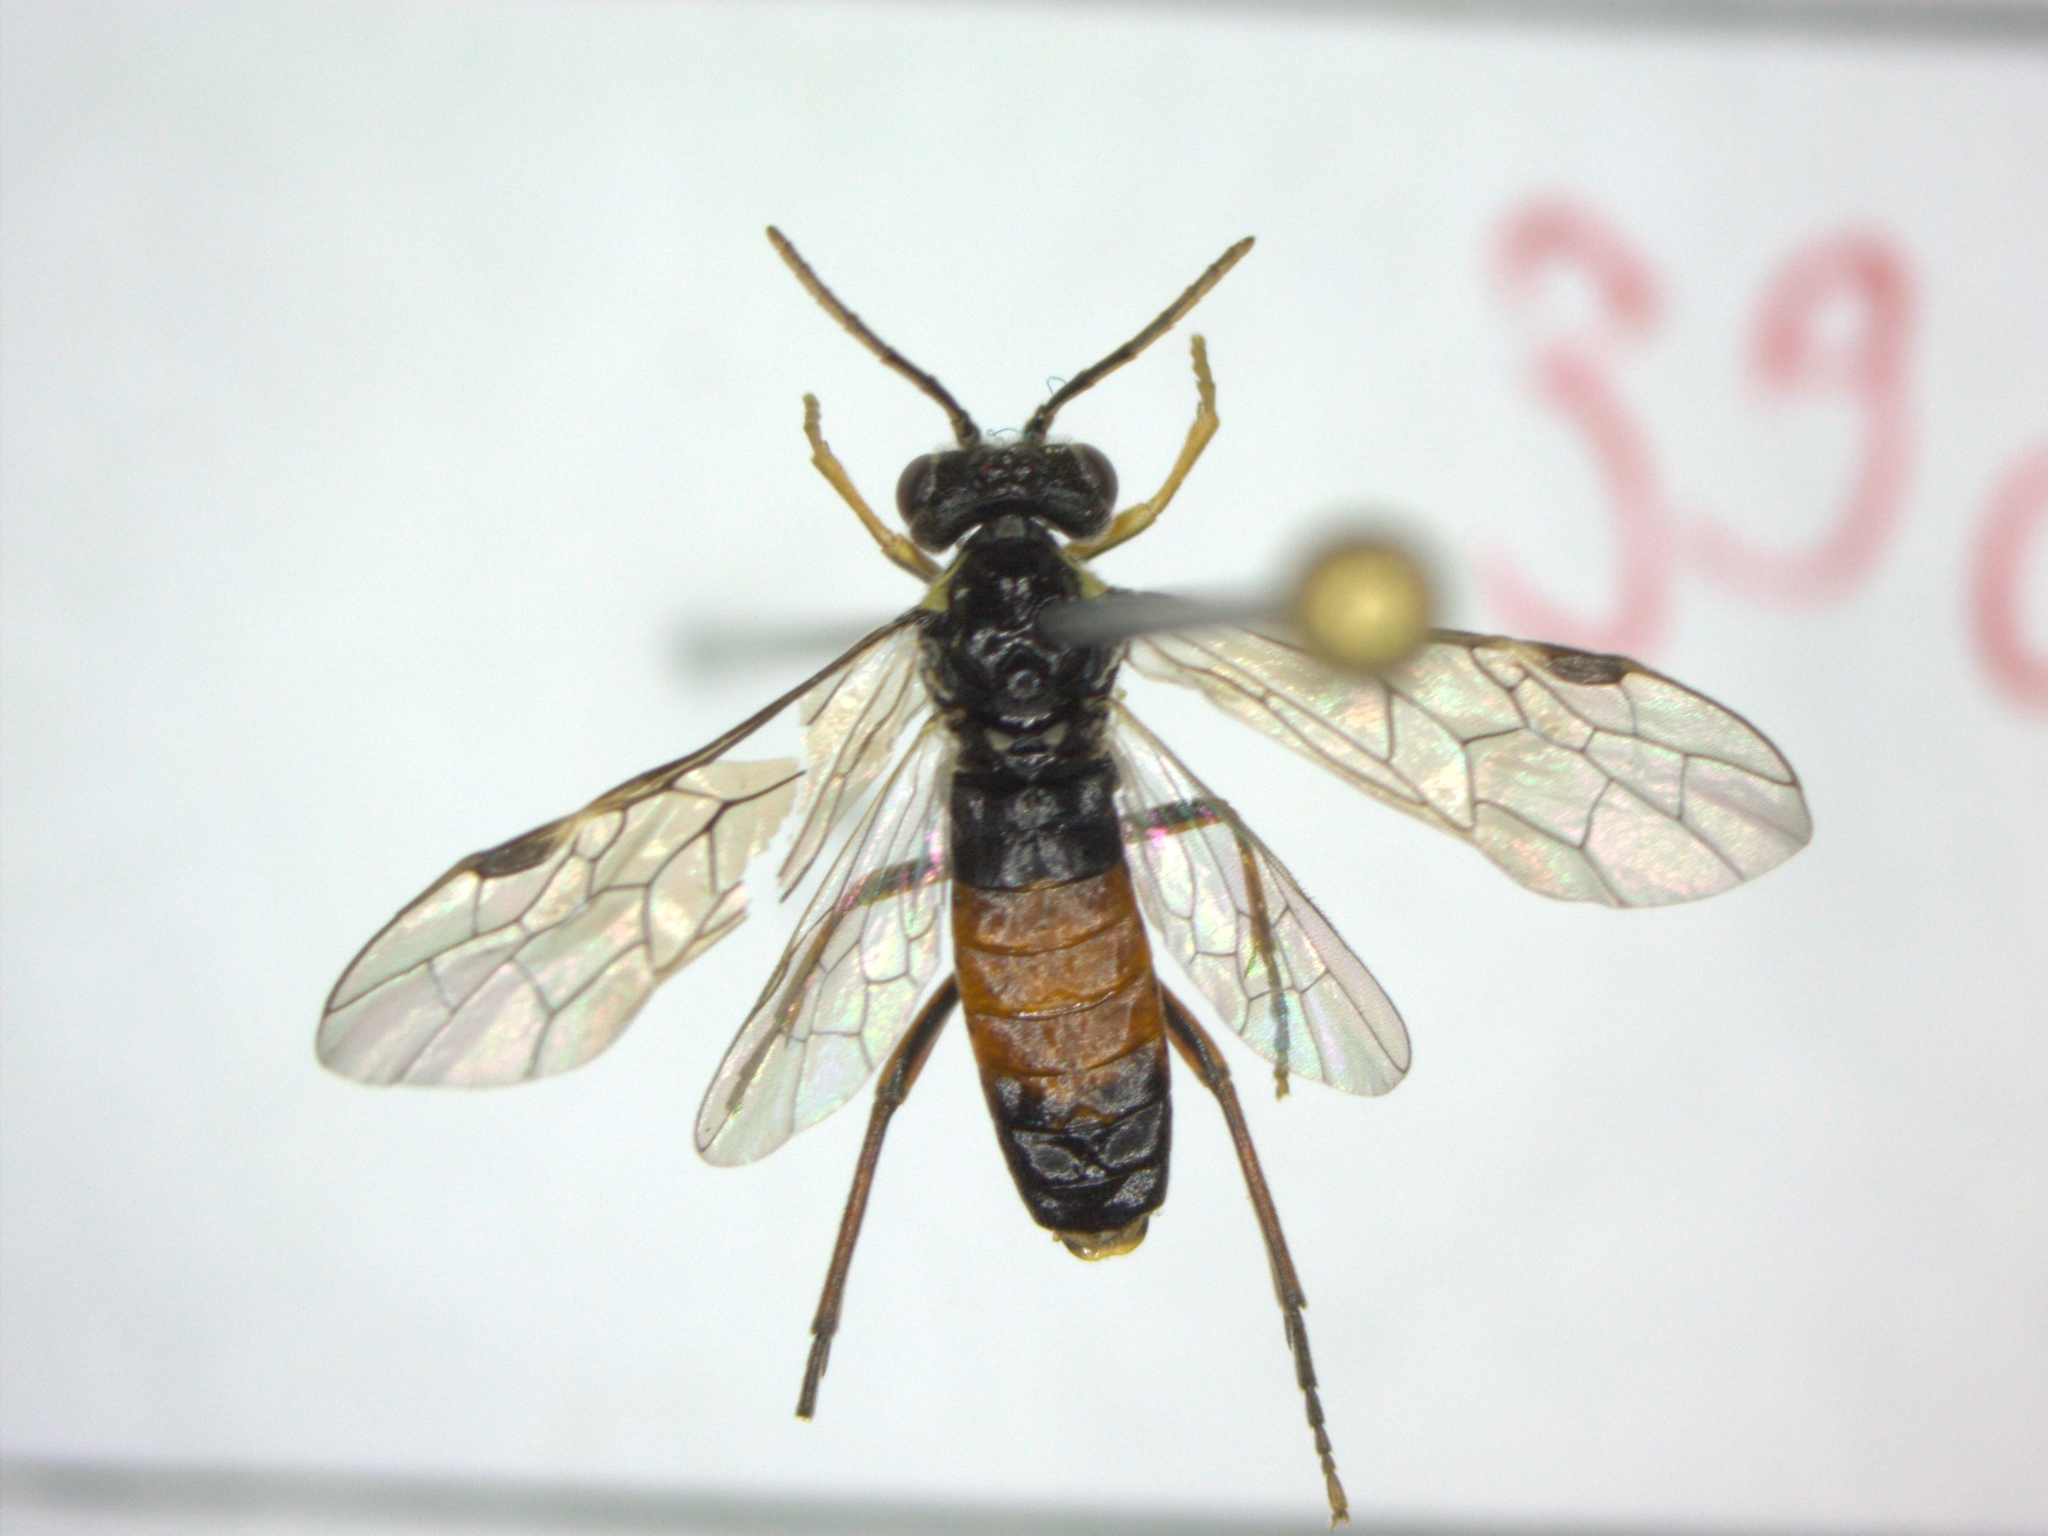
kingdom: Animalia
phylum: Arthropoda
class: Insecta
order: Hymenoptera
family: Tenthredinidae
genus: Aglaostigma
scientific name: Aglaostigma aucupariae
